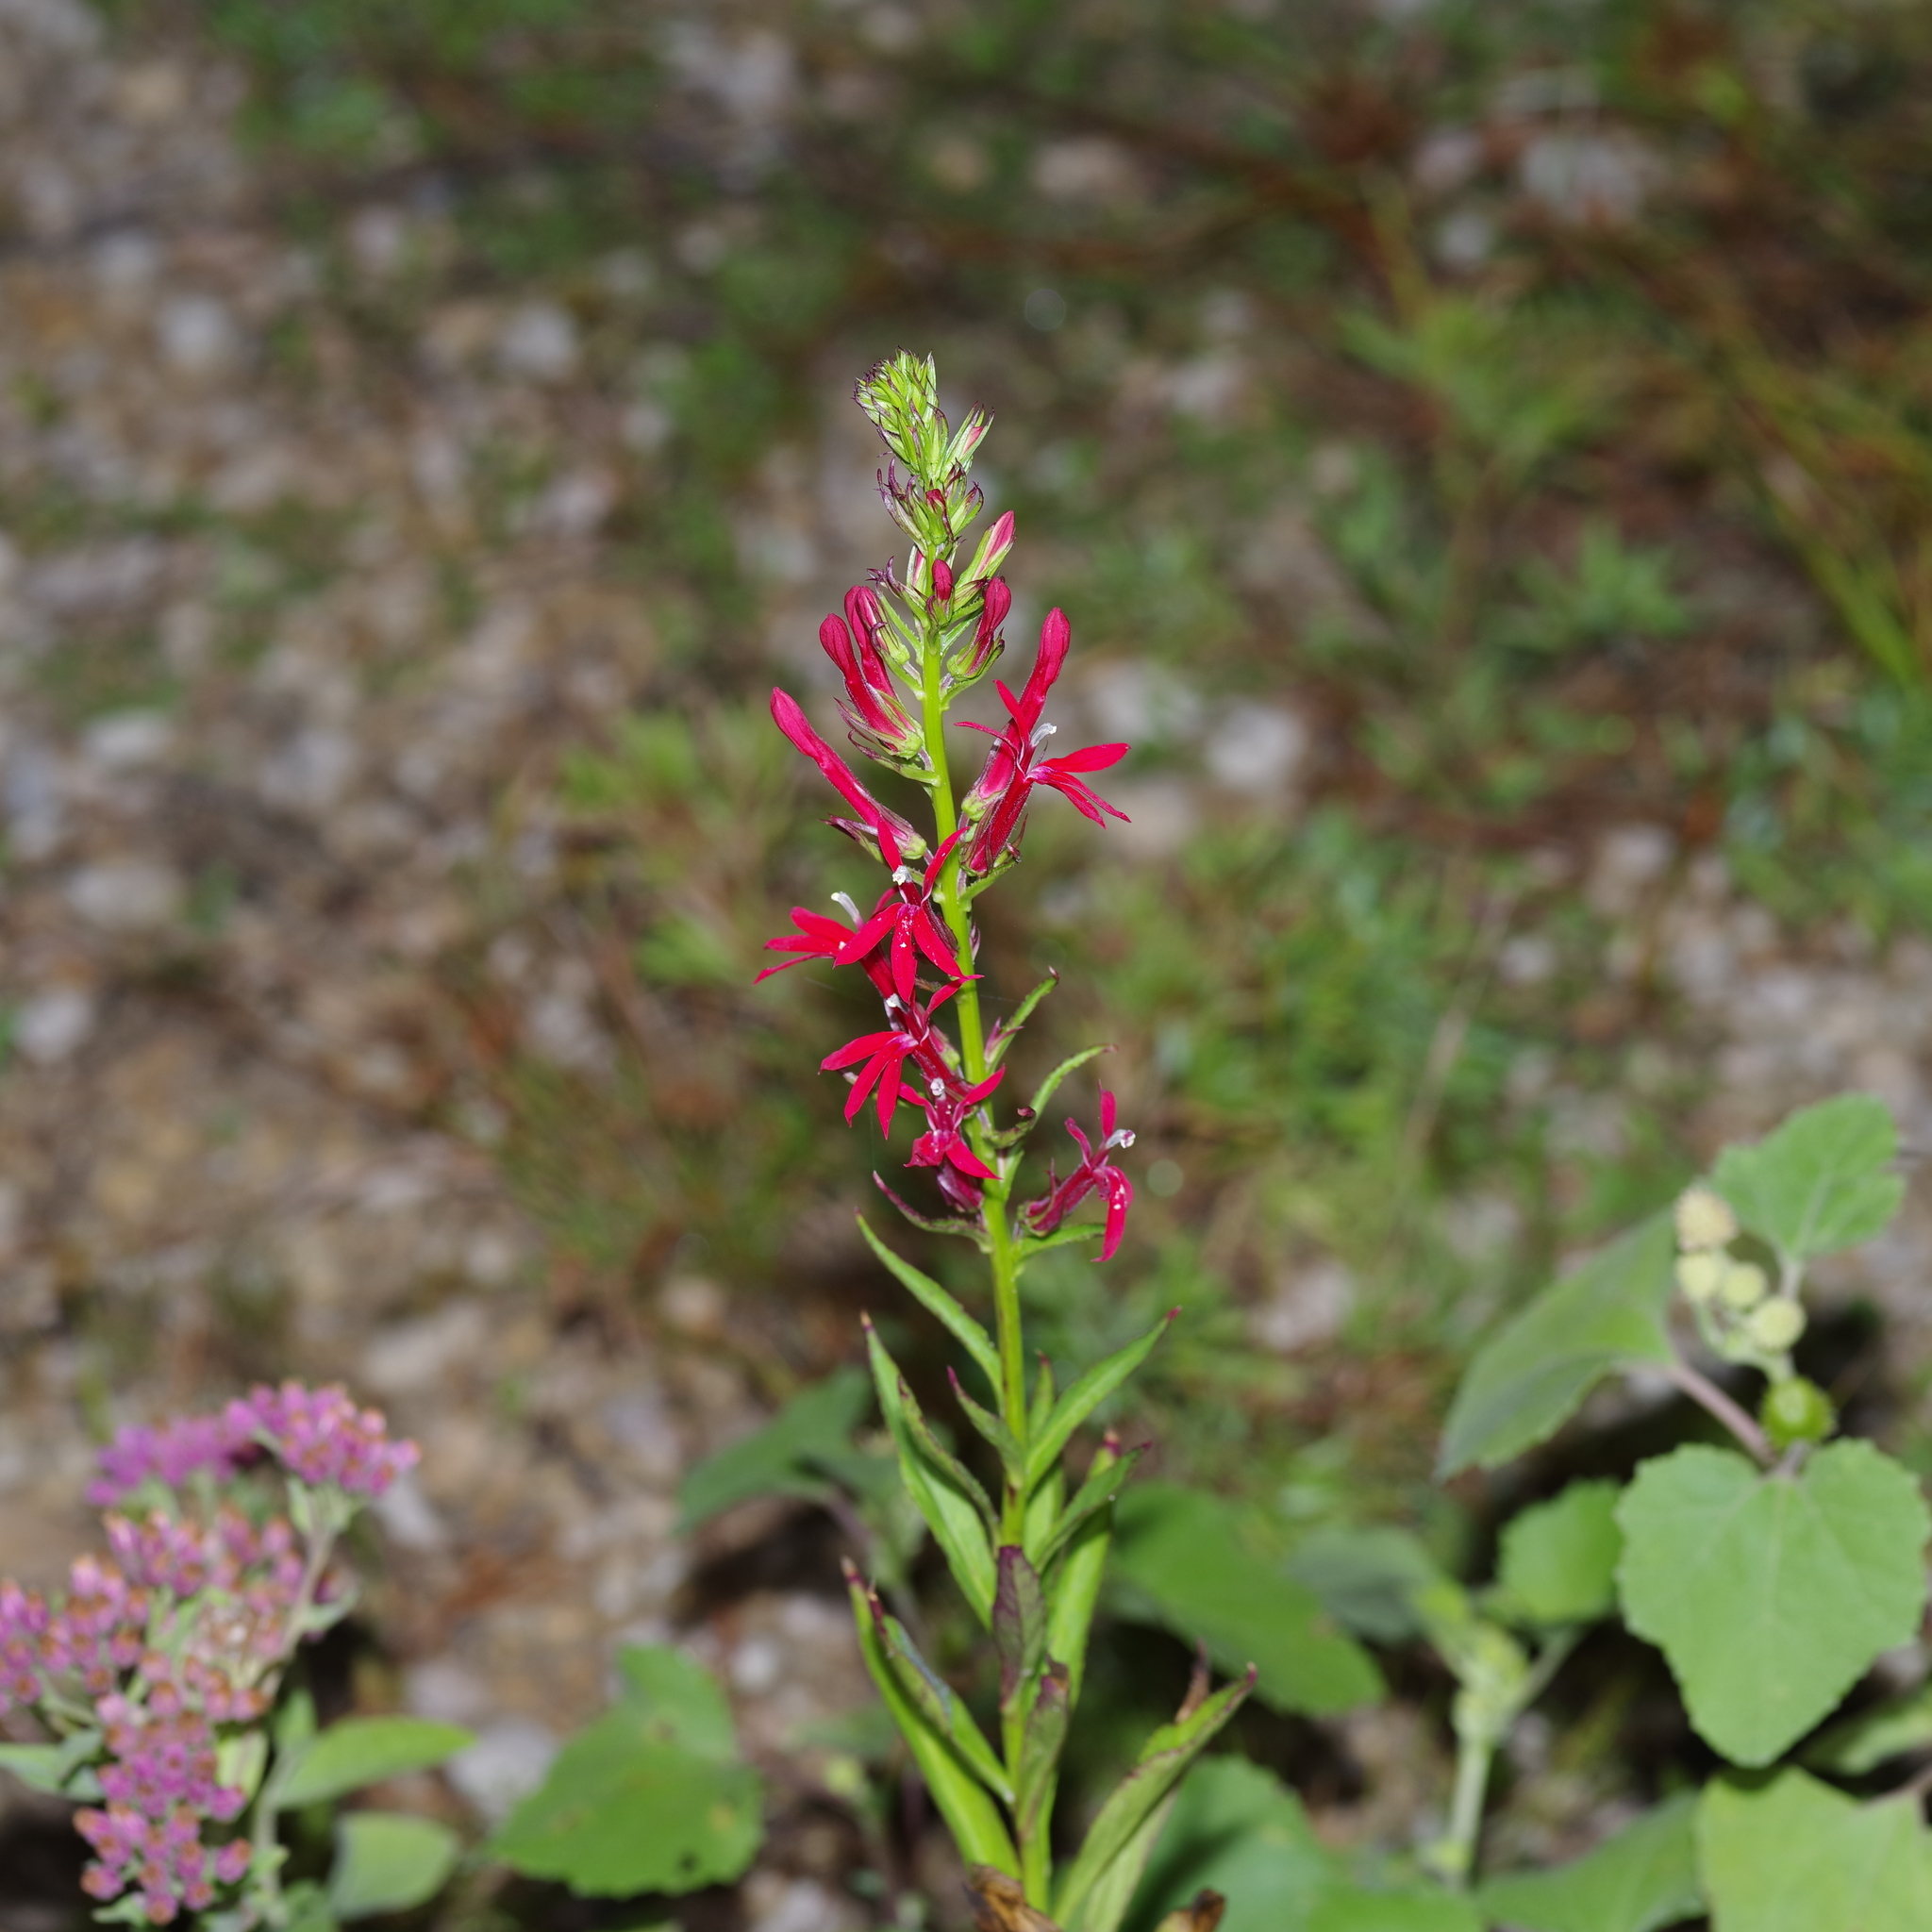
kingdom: Plantae
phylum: Tracheophyta
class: Magnoliopsida
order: Asterales
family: Campanulaceae
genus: Lobelia
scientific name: Lobelia cardinalis
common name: Cardinal flower
